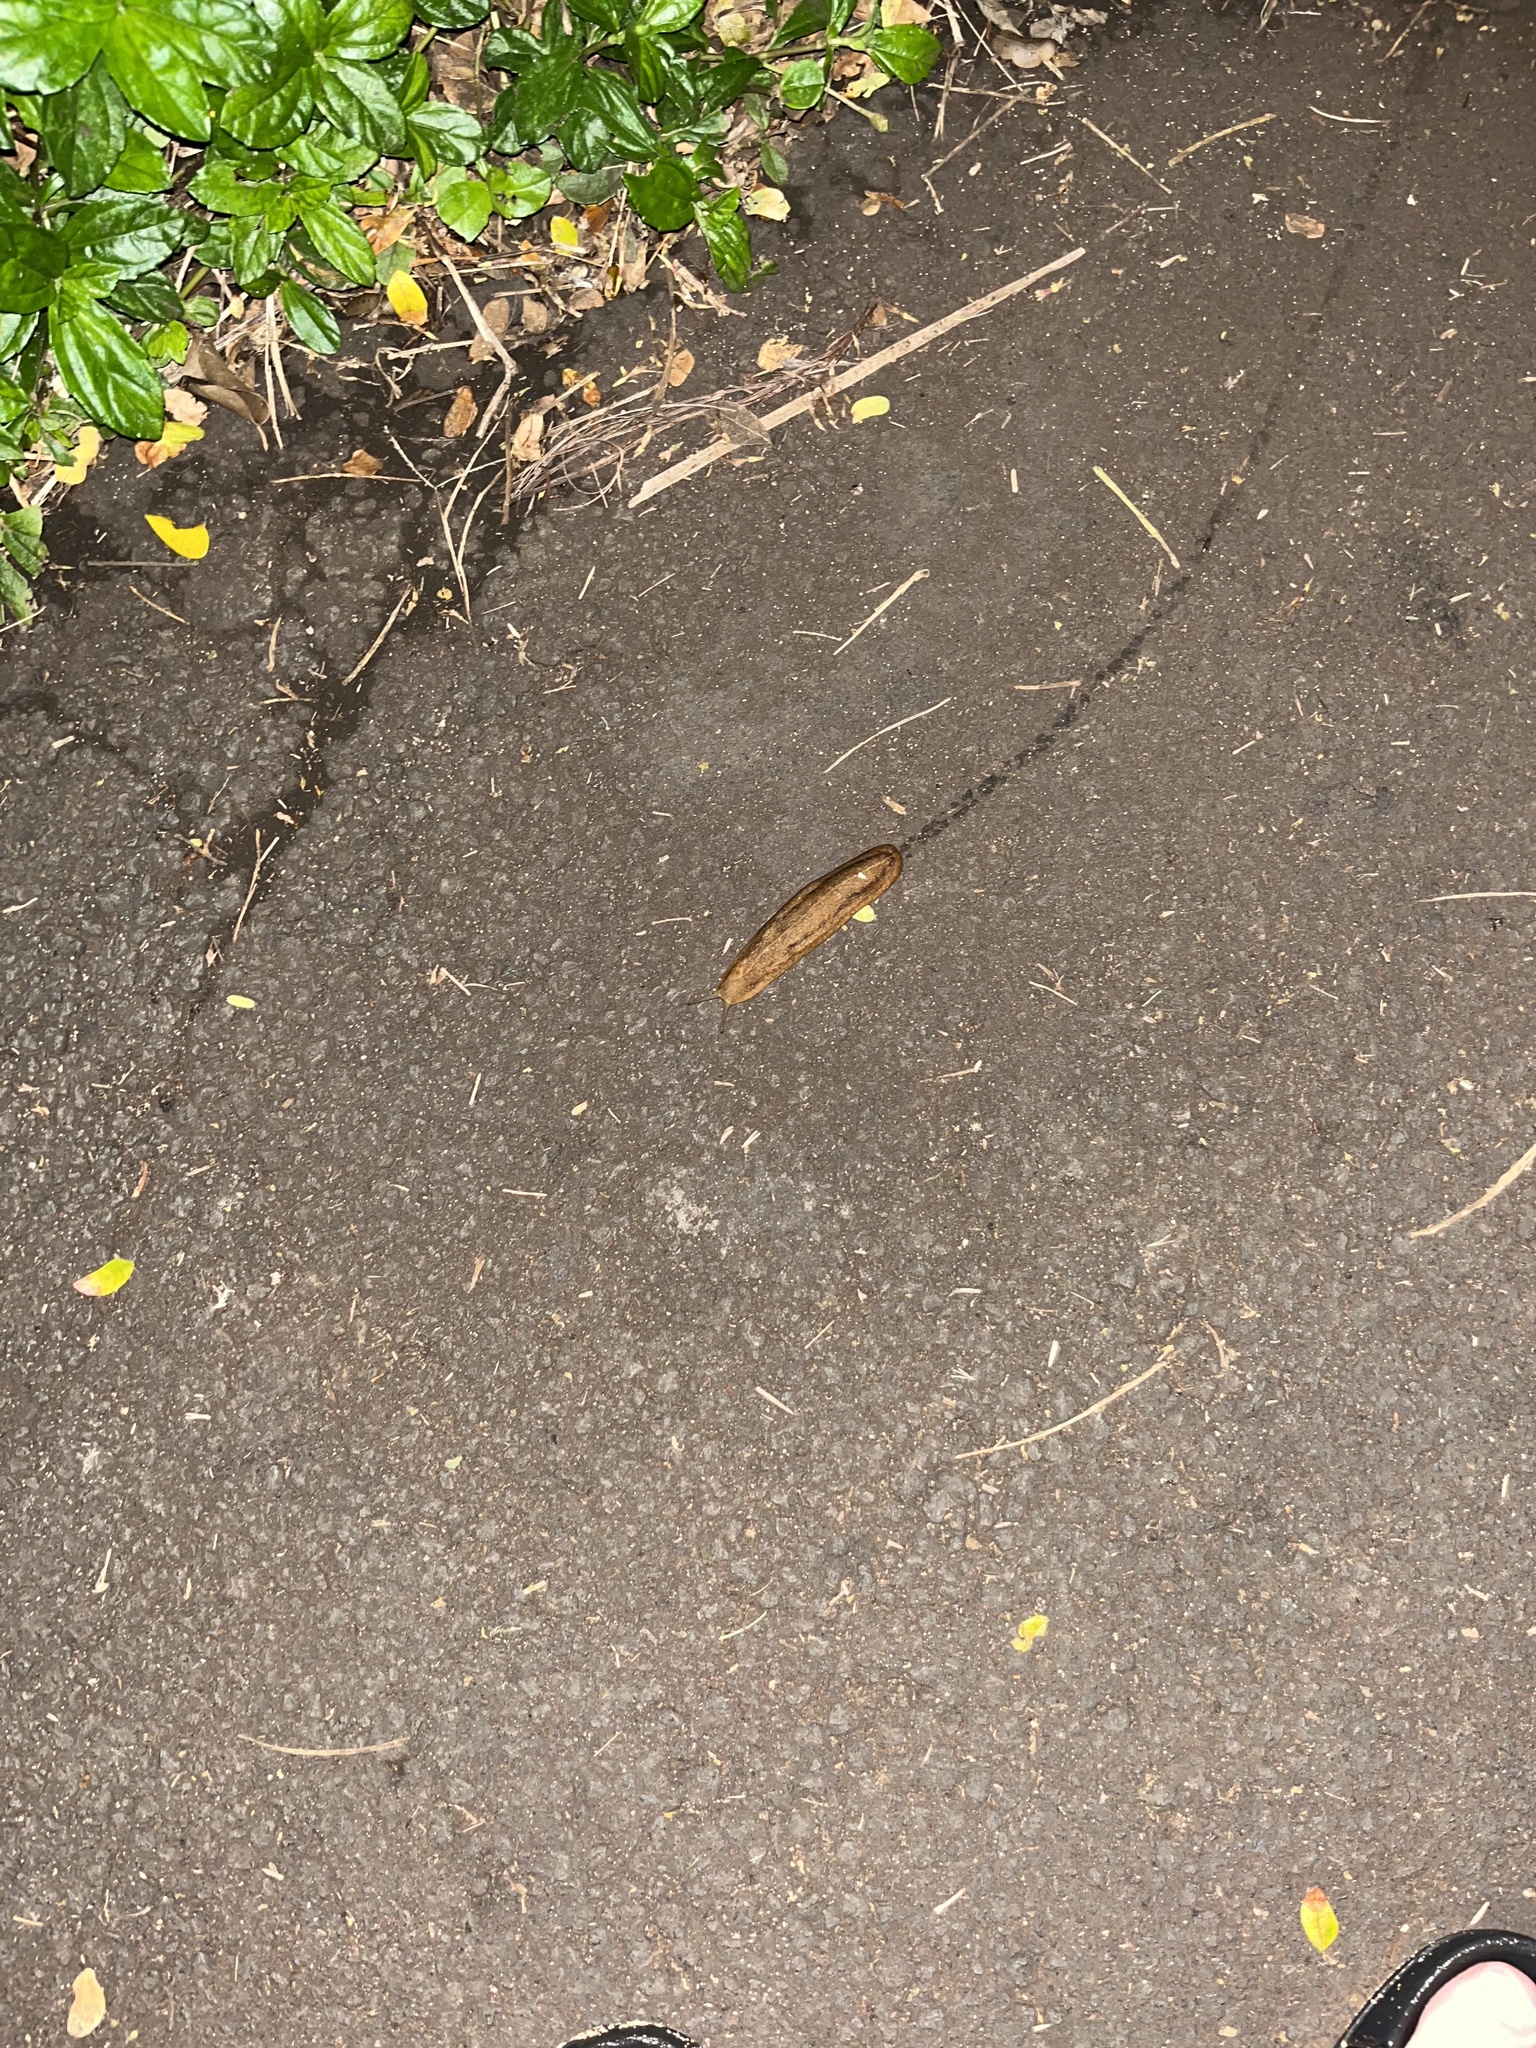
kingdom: Animalia
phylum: Mollusca
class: Gastropoda
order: Systellommatophora
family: Veronicellidae
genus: Veronicella
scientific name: Veronicella cubensis
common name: Two striped slug
